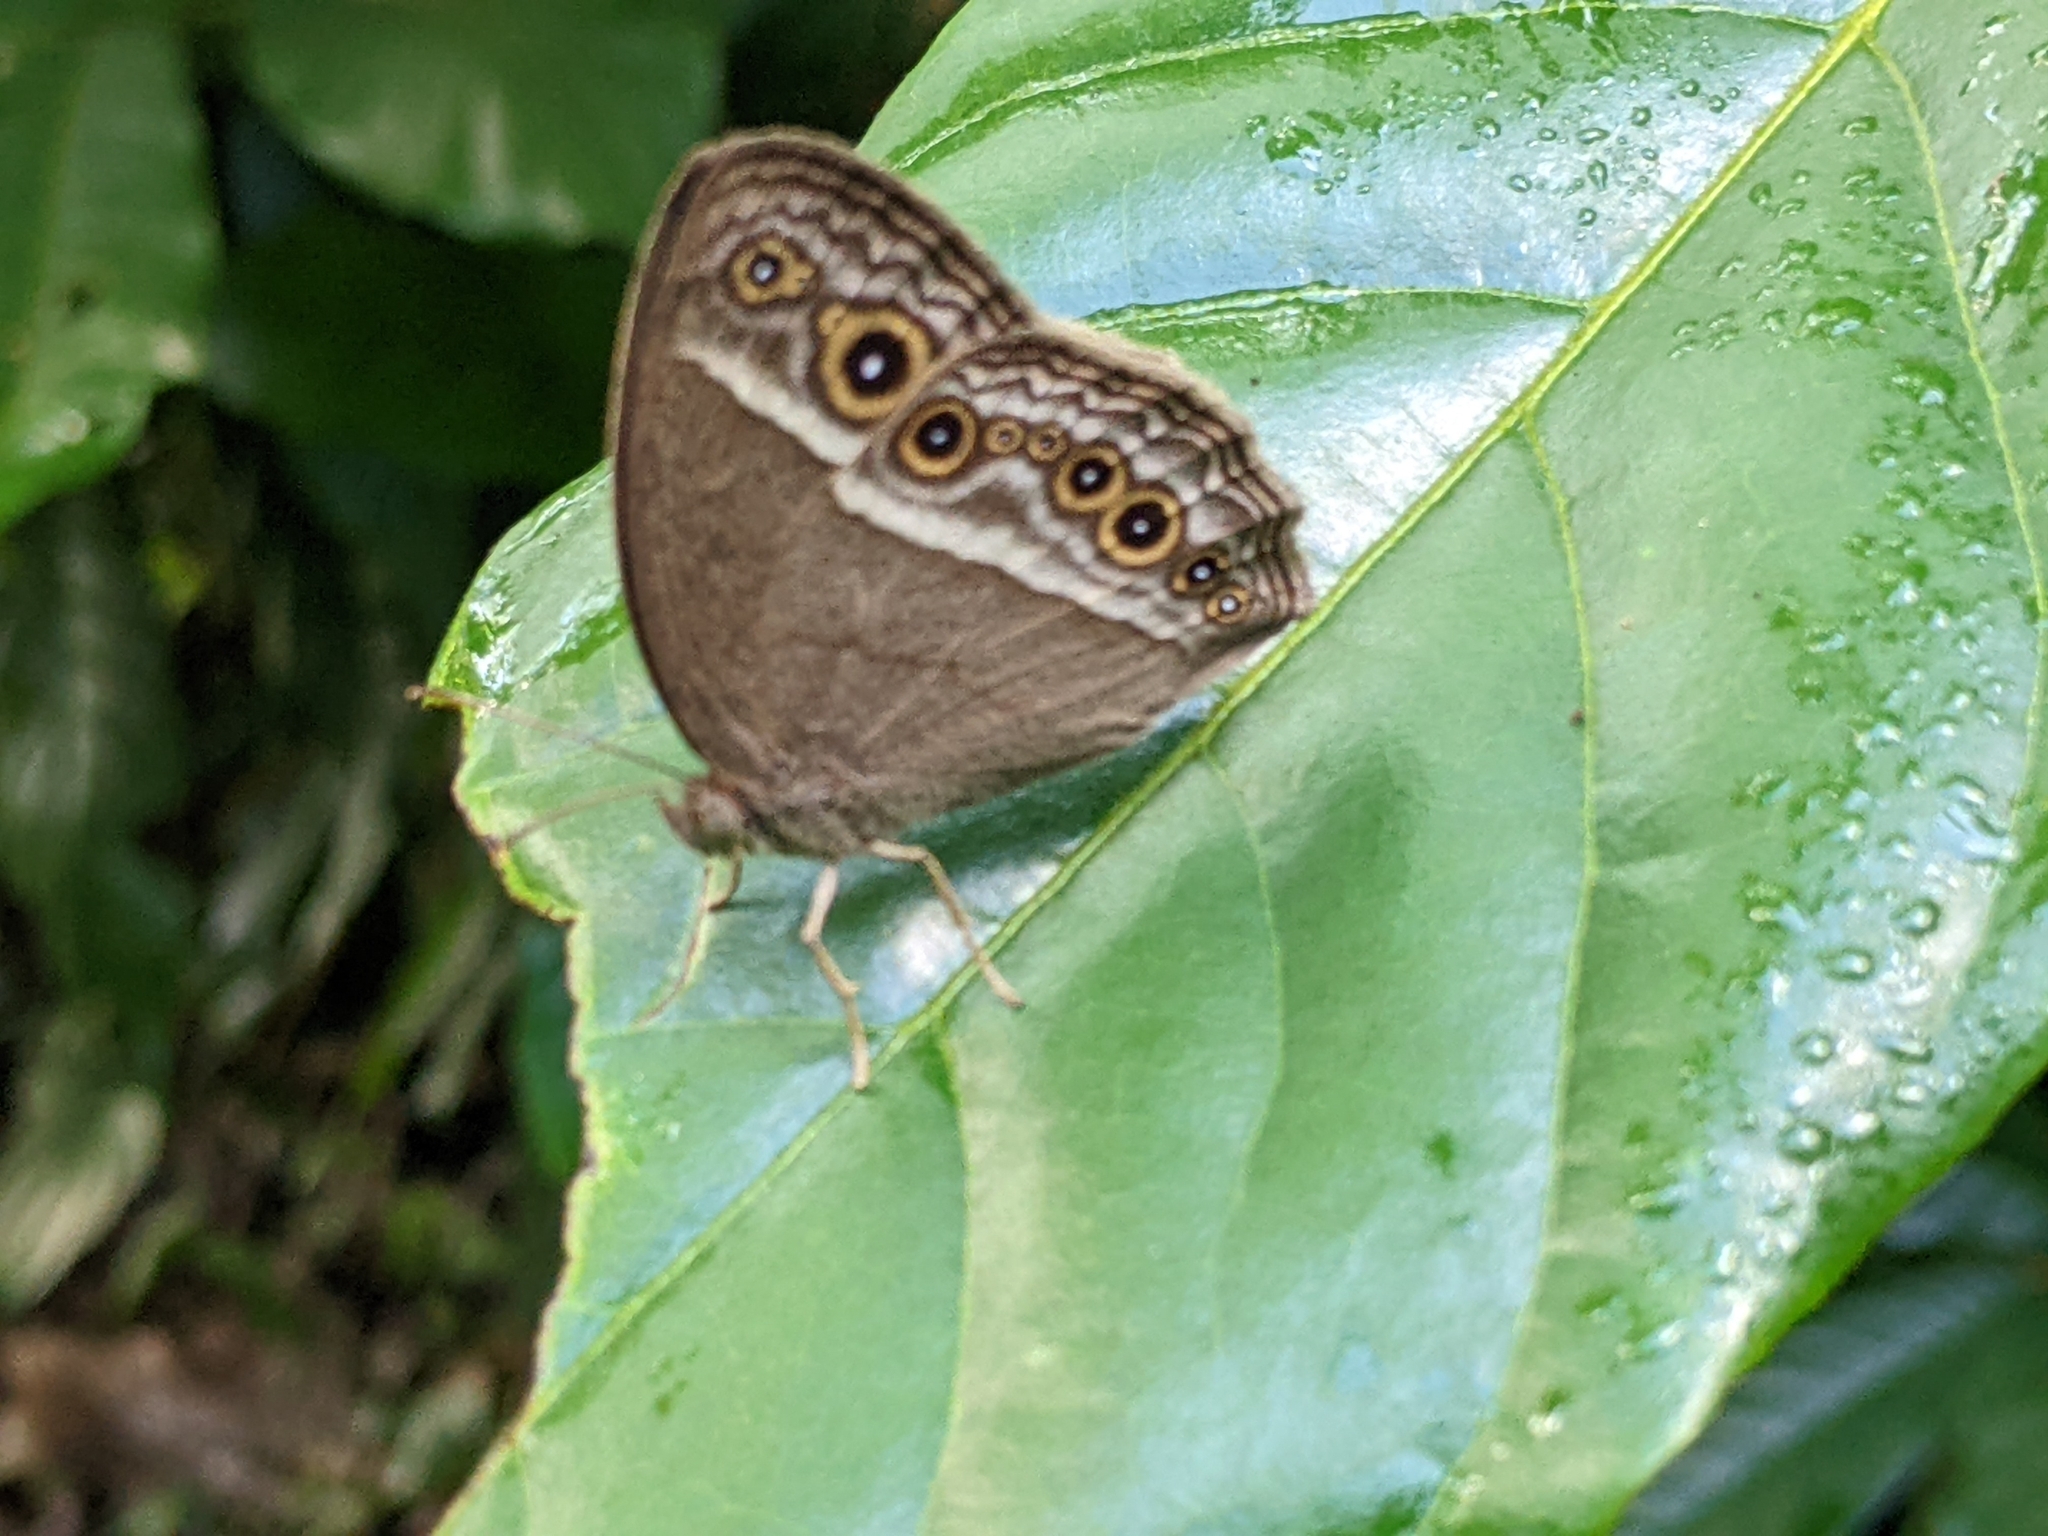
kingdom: Animalia
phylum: Arthropoda
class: Insecta
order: Lepidoptera
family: Nymphalidae
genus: Mycalesis
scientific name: Mycalesis visala
